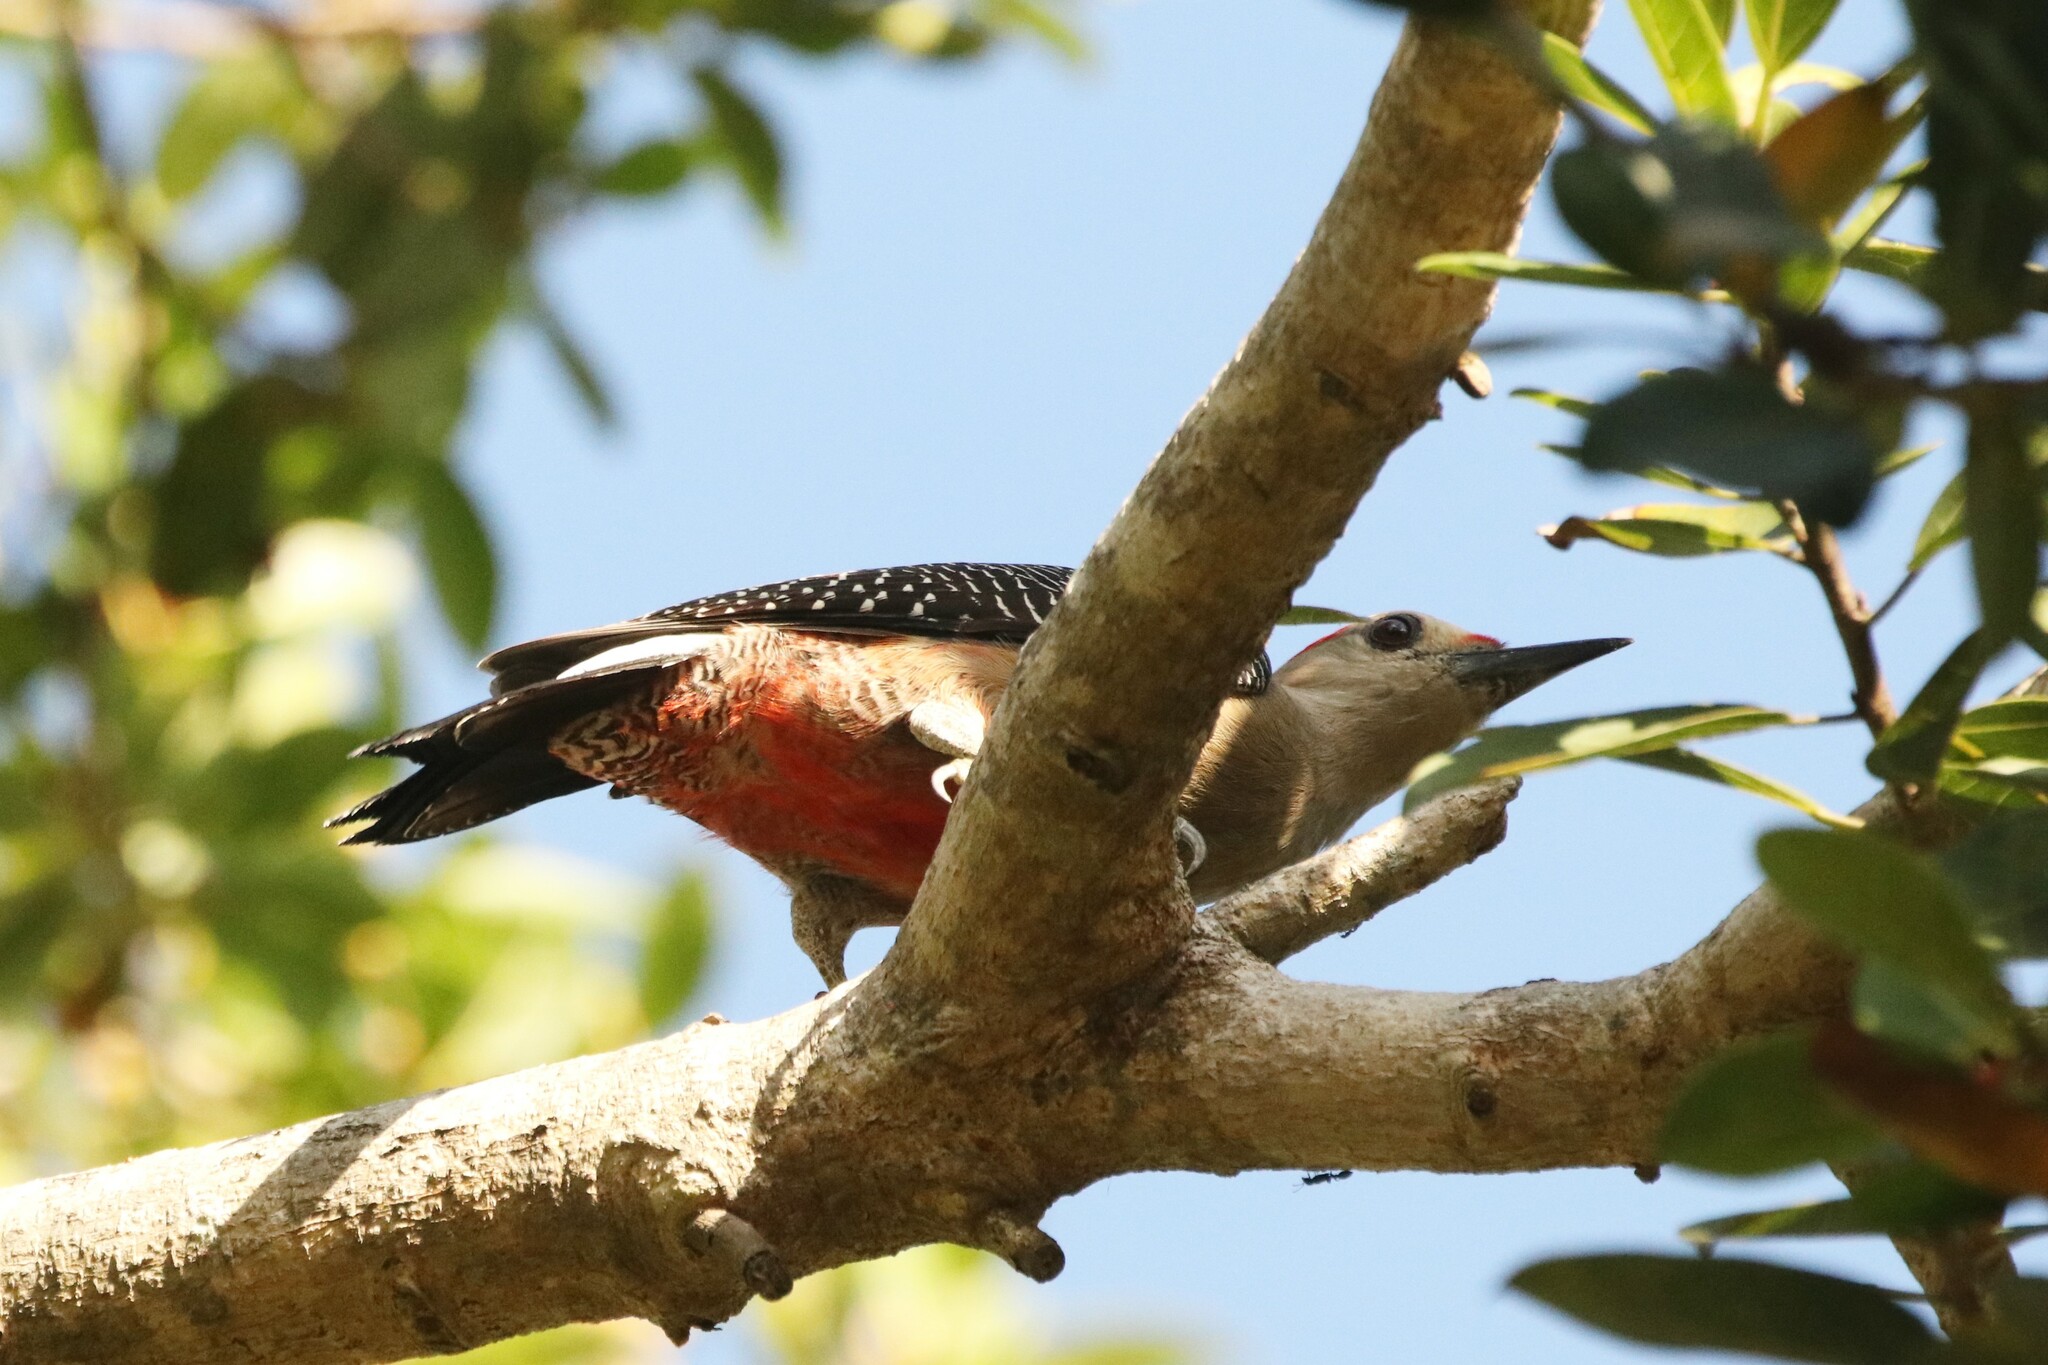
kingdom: Animalia
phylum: Chordata
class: Aves
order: Piciformes
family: Picidae
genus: Melanerpes
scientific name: Melanerpes aurifrons
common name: Golden-fronted woodpecker
